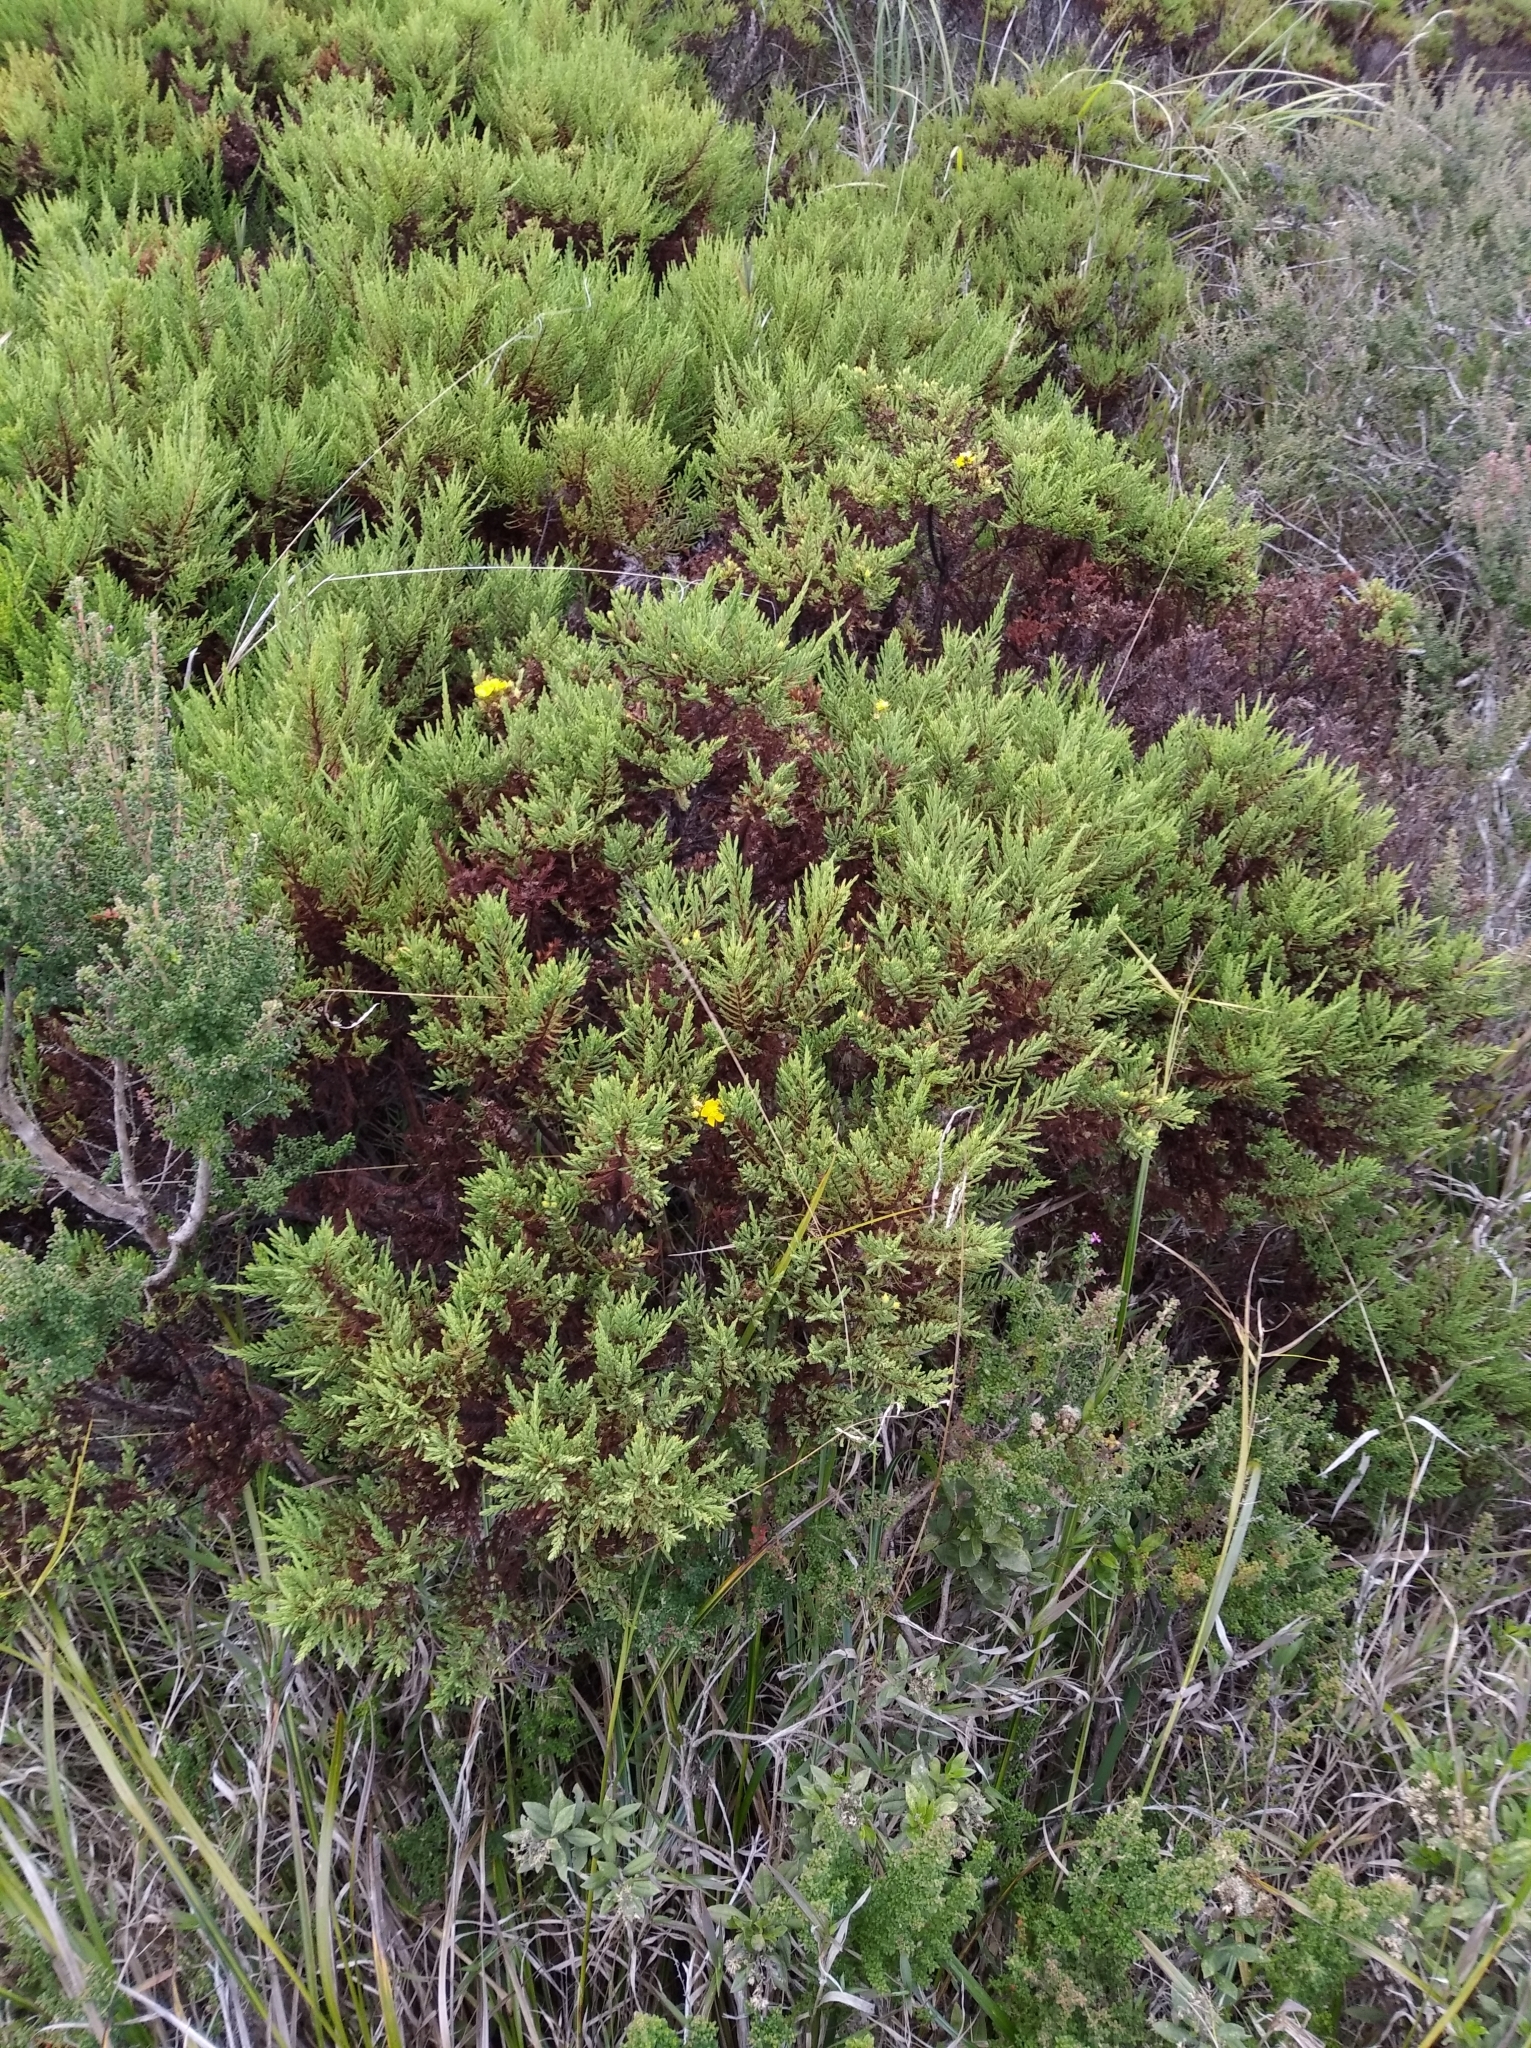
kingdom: Plantae
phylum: Tracheophyta
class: Magnoliopsida
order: Malpighiales
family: Hypericaceae
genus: Hypericum
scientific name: Hypericum laricifolium
